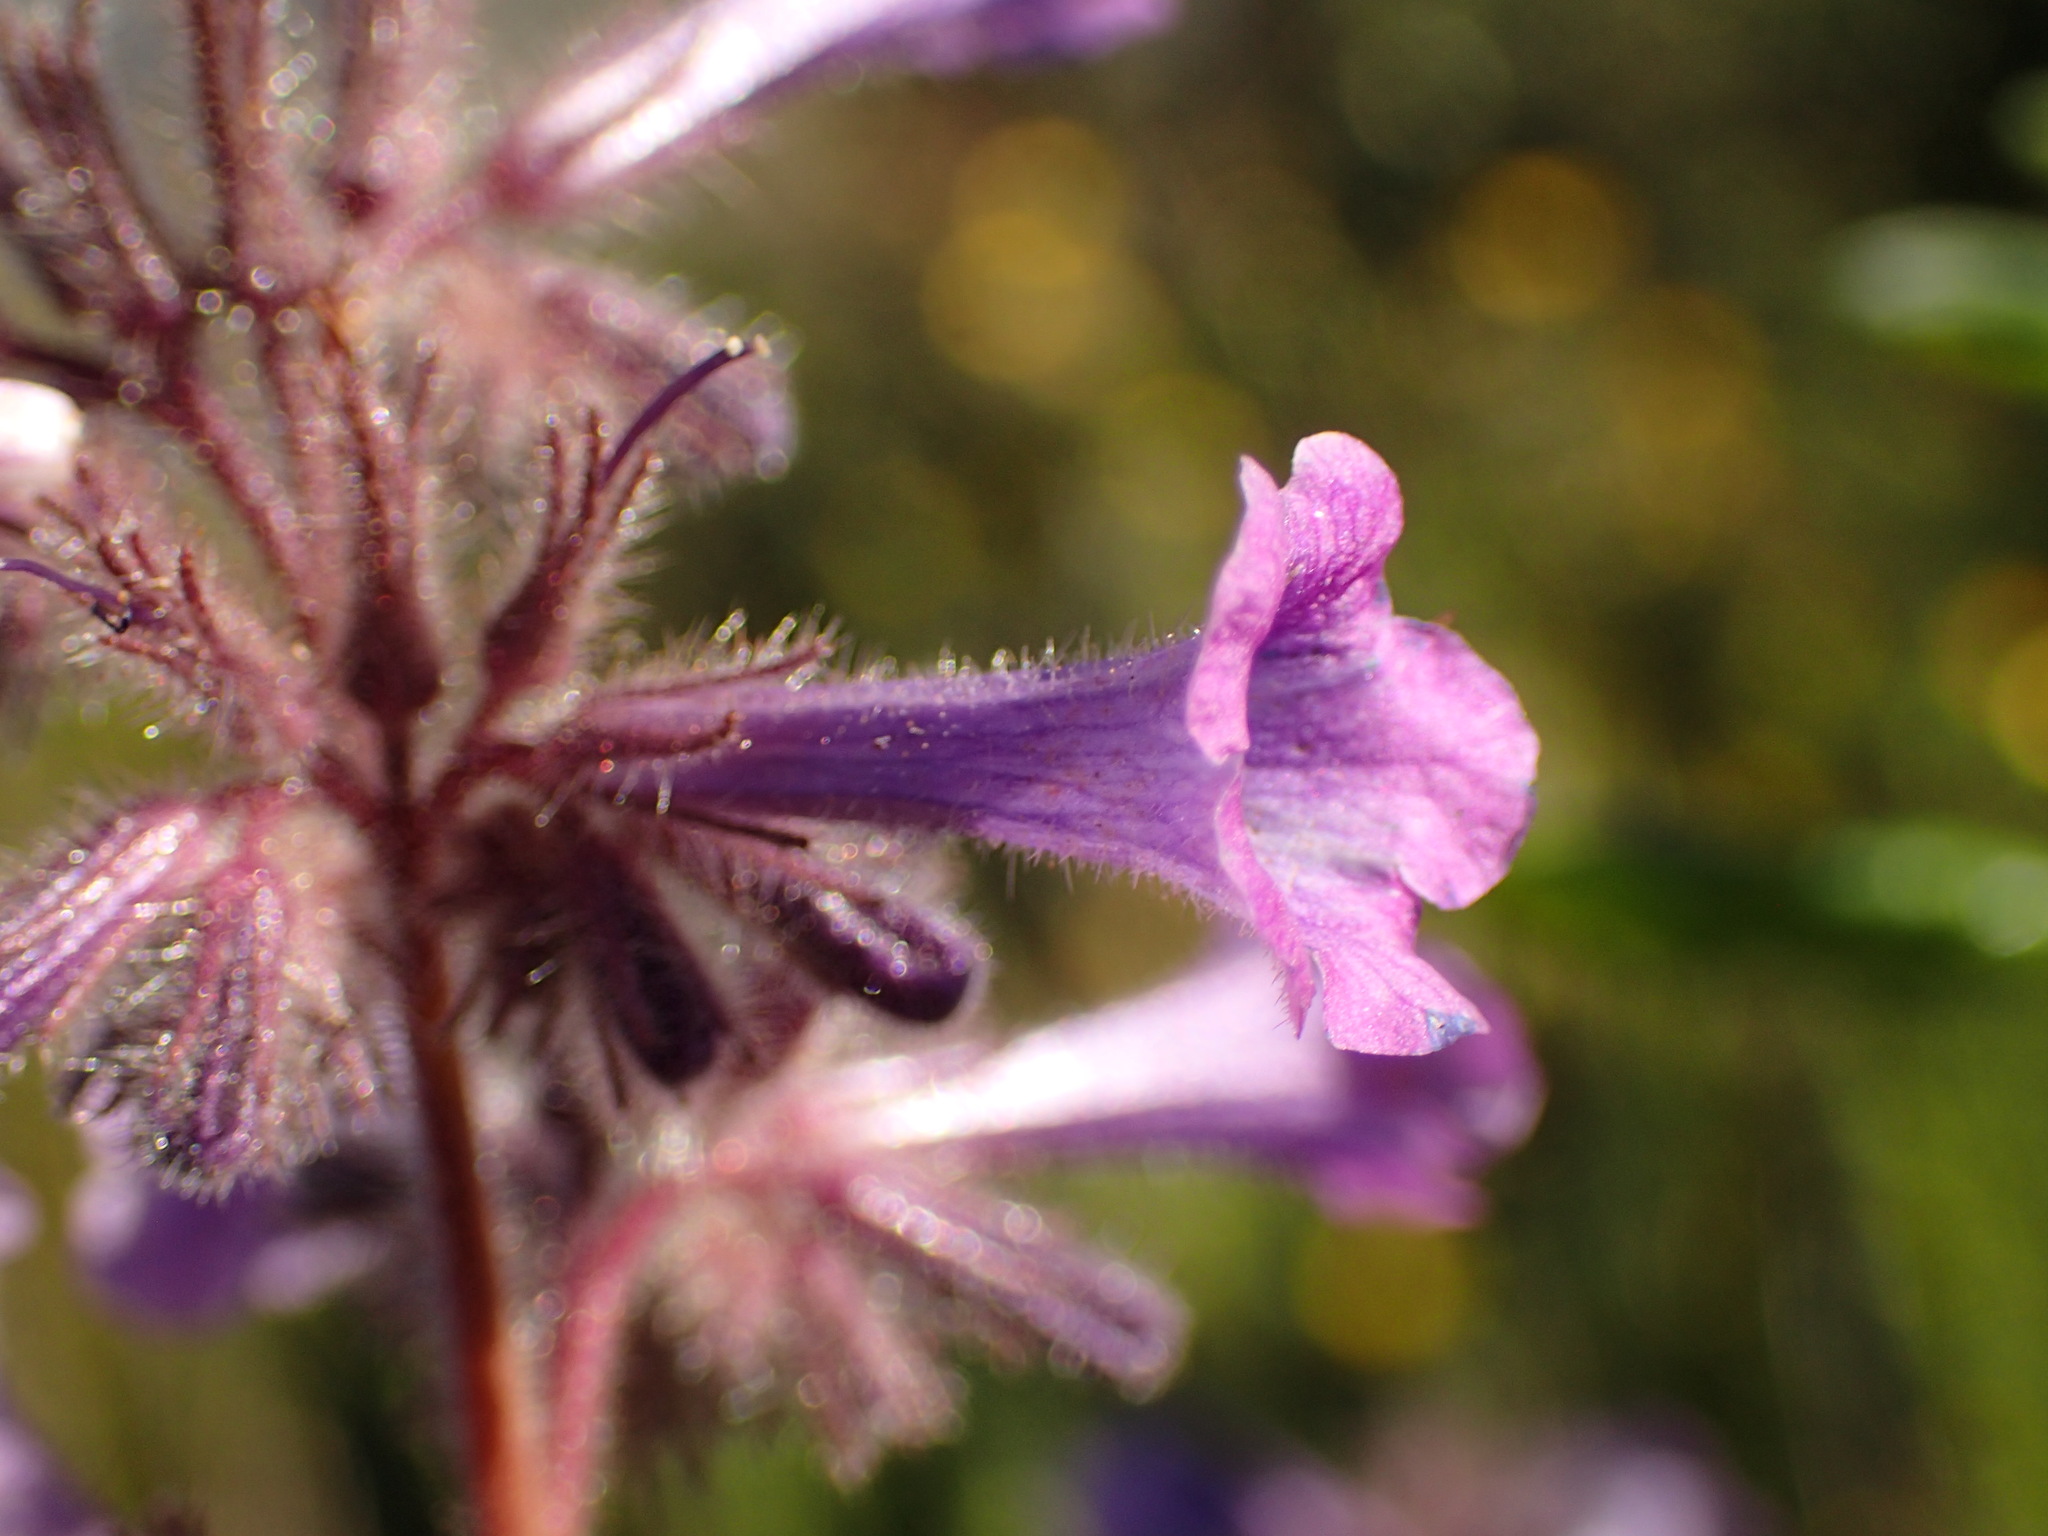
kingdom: Plantae
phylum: Tracheophyta
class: Magnoliopsida
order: Boraginales
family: Namaceae
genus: Turricula
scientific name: Turricula parryi
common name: Poodle-dog-bush
